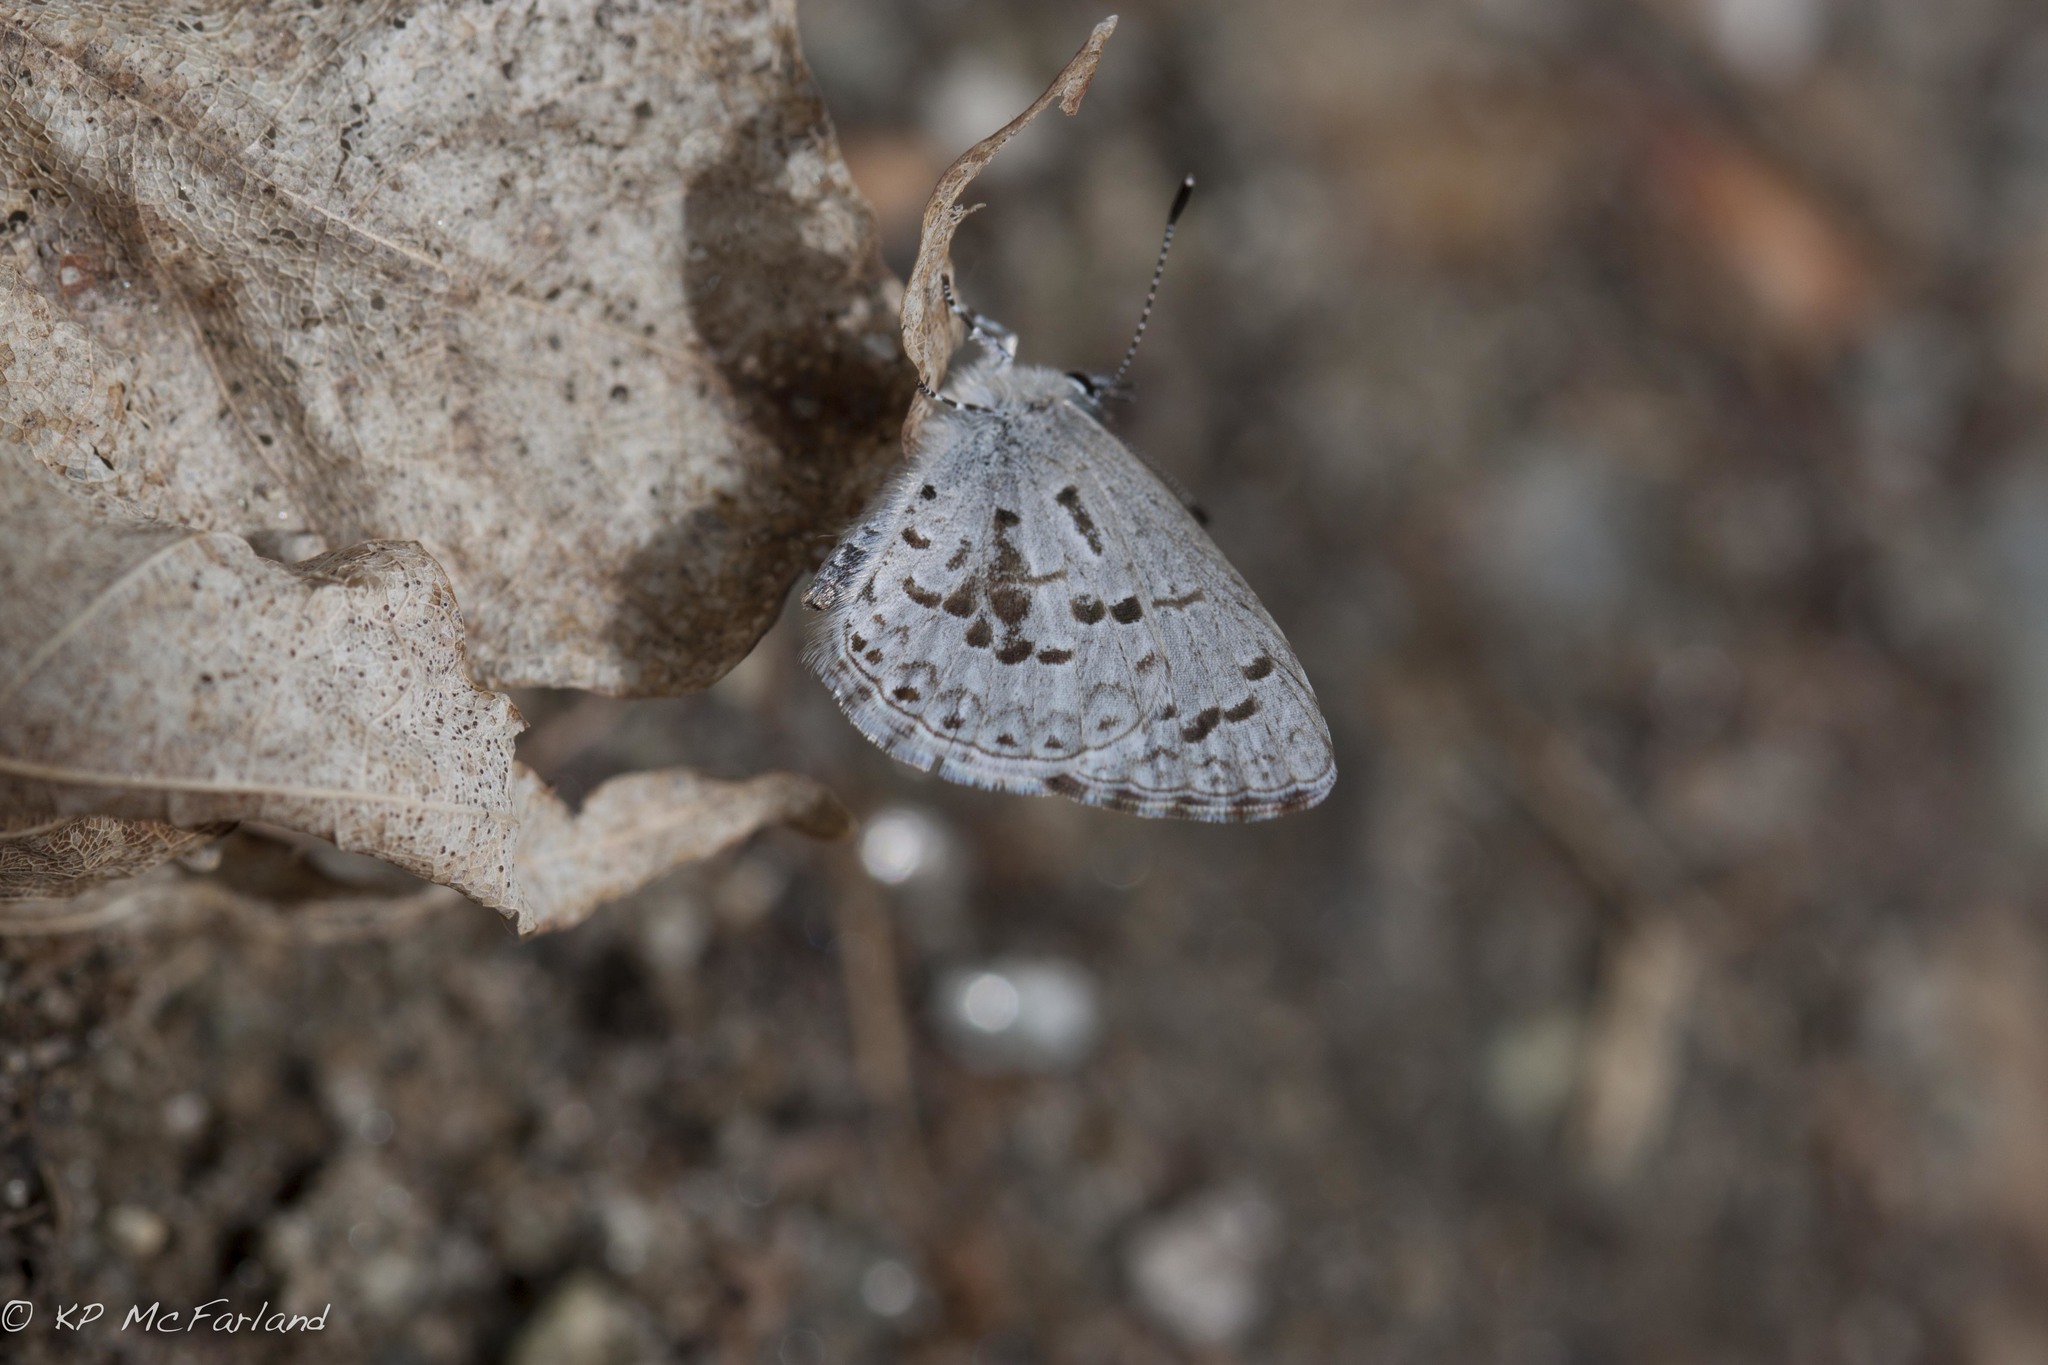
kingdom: Animalia
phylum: Arthropoda
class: Insecta
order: Lepidoptera
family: Lycaenidae
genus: Celastrina
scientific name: Celastrina lucia
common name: Lucia azure
